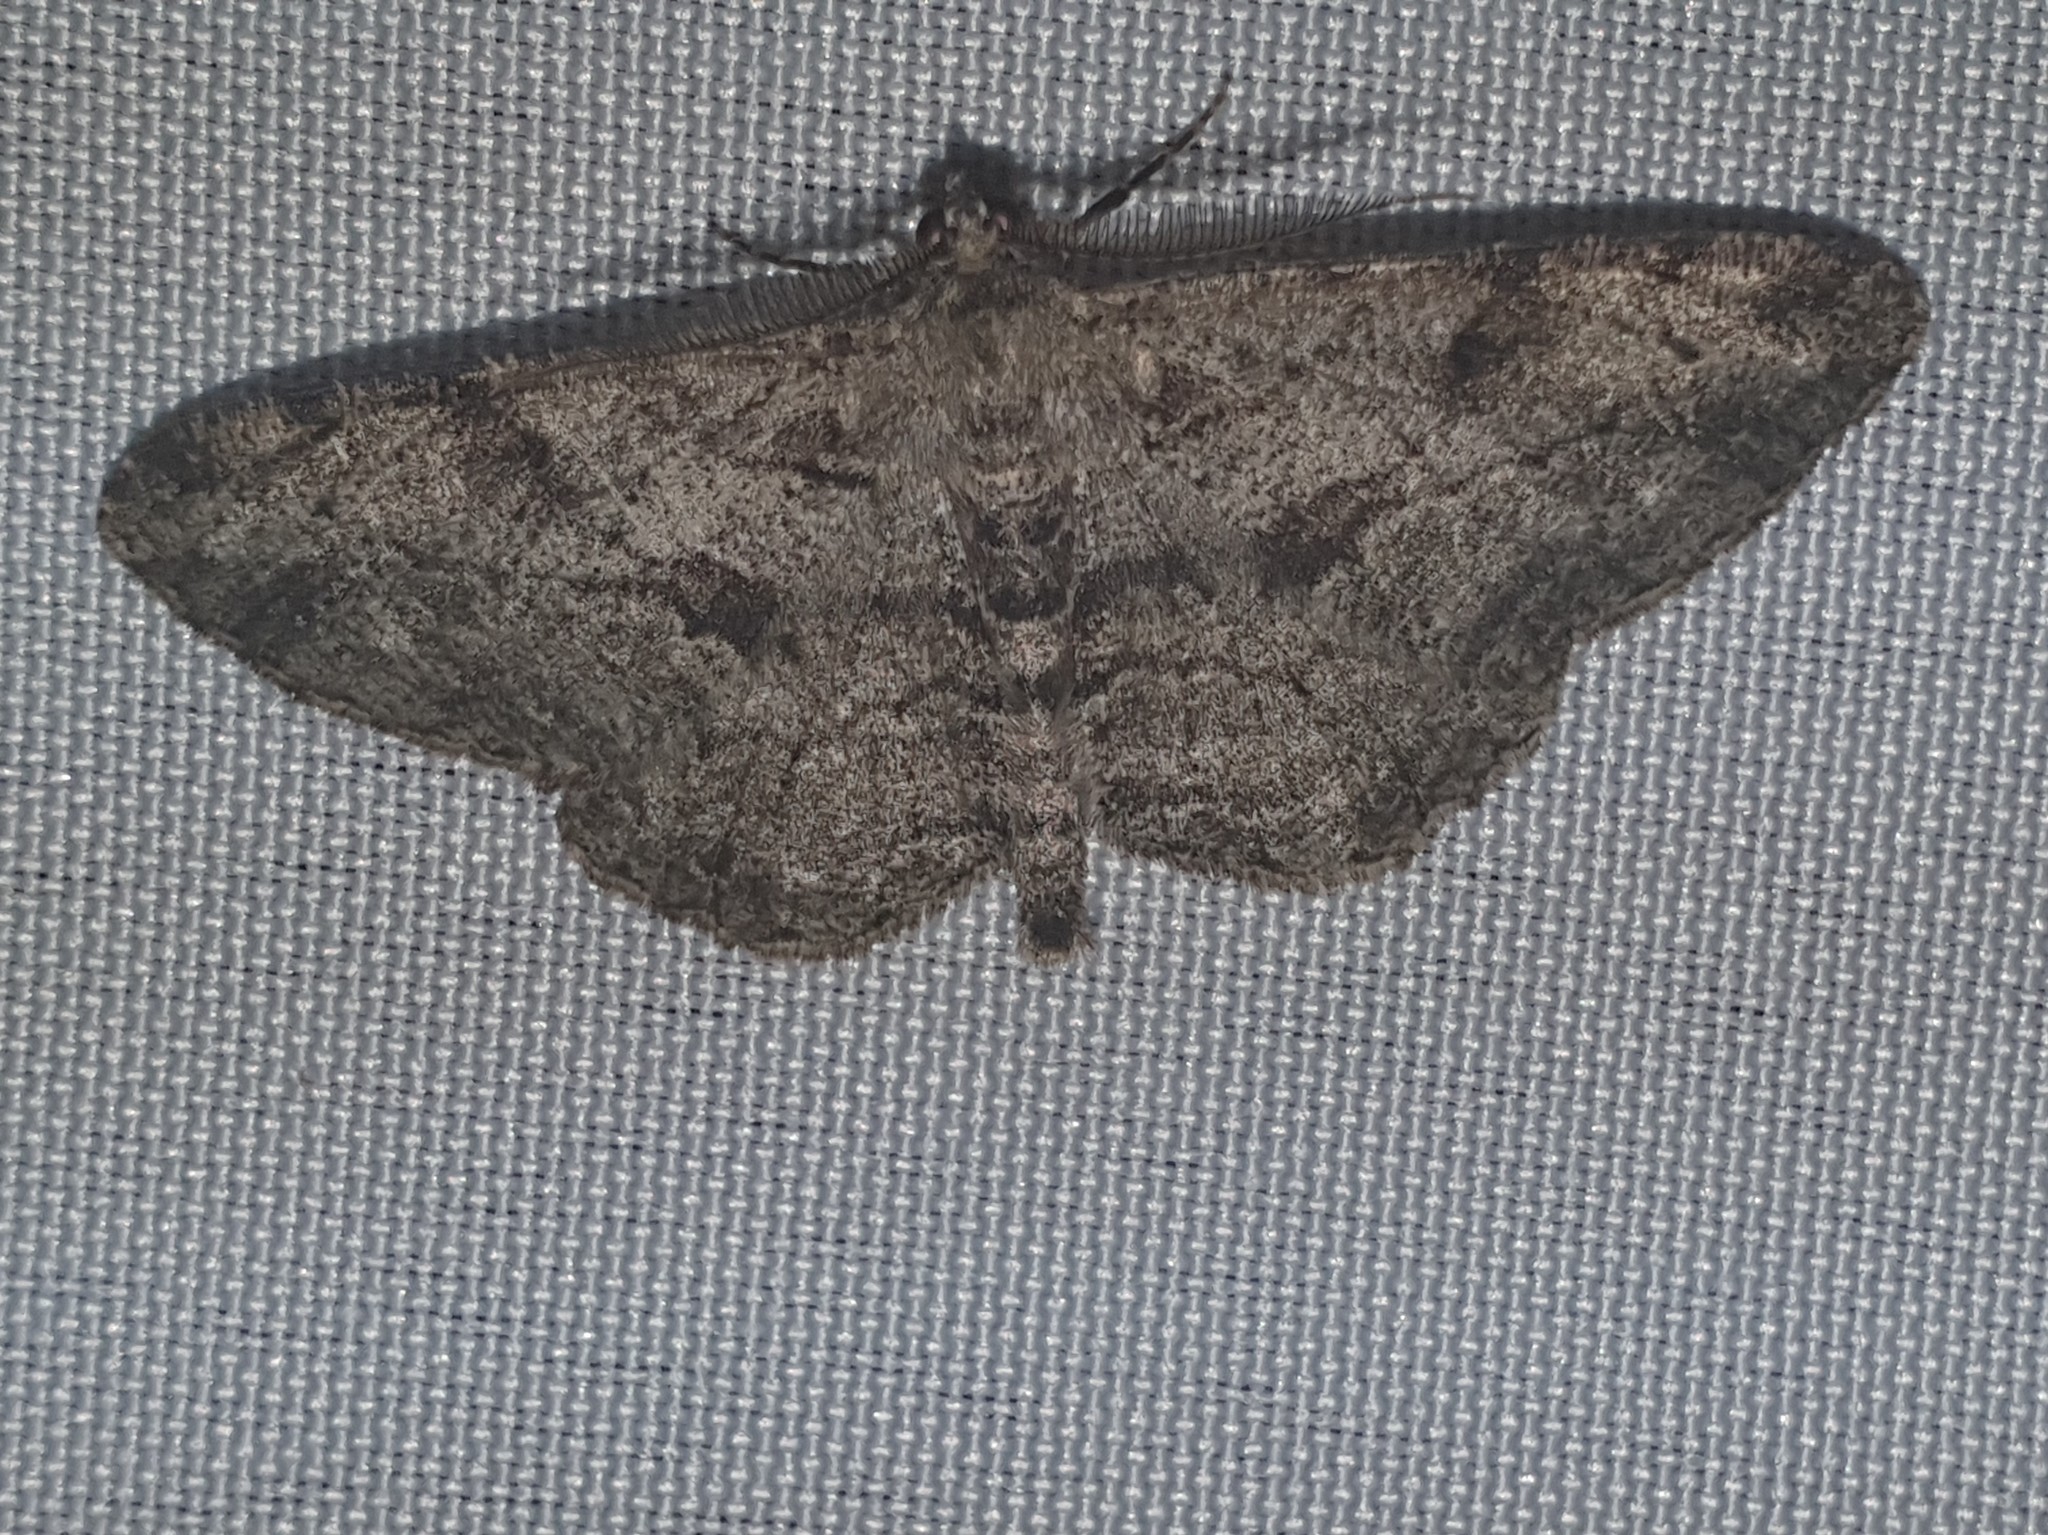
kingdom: Animalia
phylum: Arthropoda
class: Insecta
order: Lepidoptera
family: Geometridae
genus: Peribatodes
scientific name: Peribatodes rhomboidaria
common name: Willow beauty
